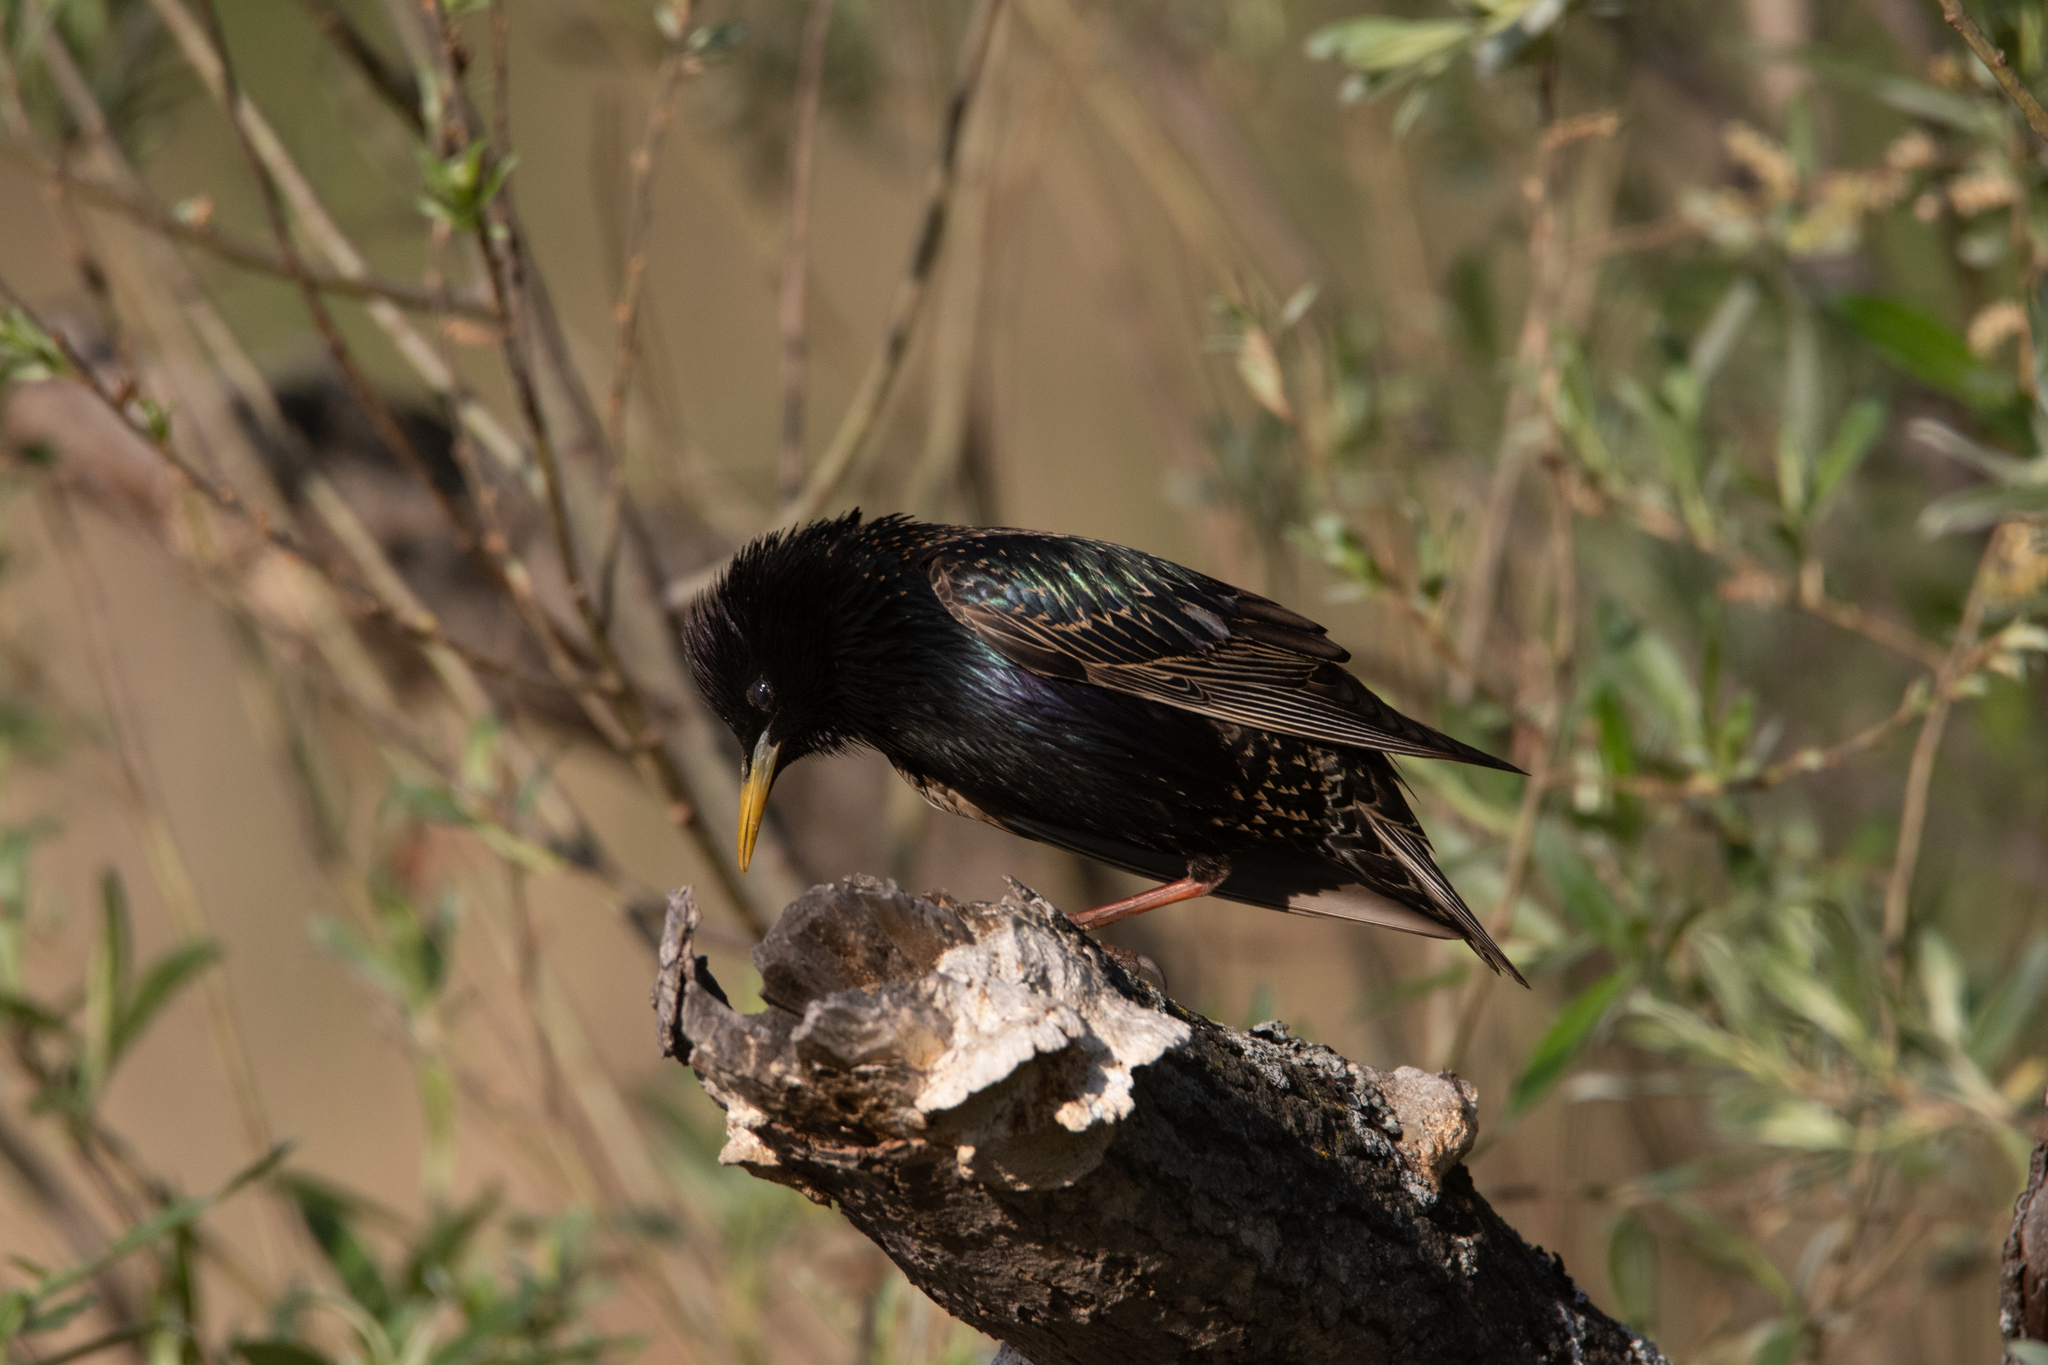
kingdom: Animalia
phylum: Chordata
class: Aves
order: Passeriformes
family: Sturnidae
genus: Sturnus
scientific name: Sturnus vulgaris
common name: Common starling
